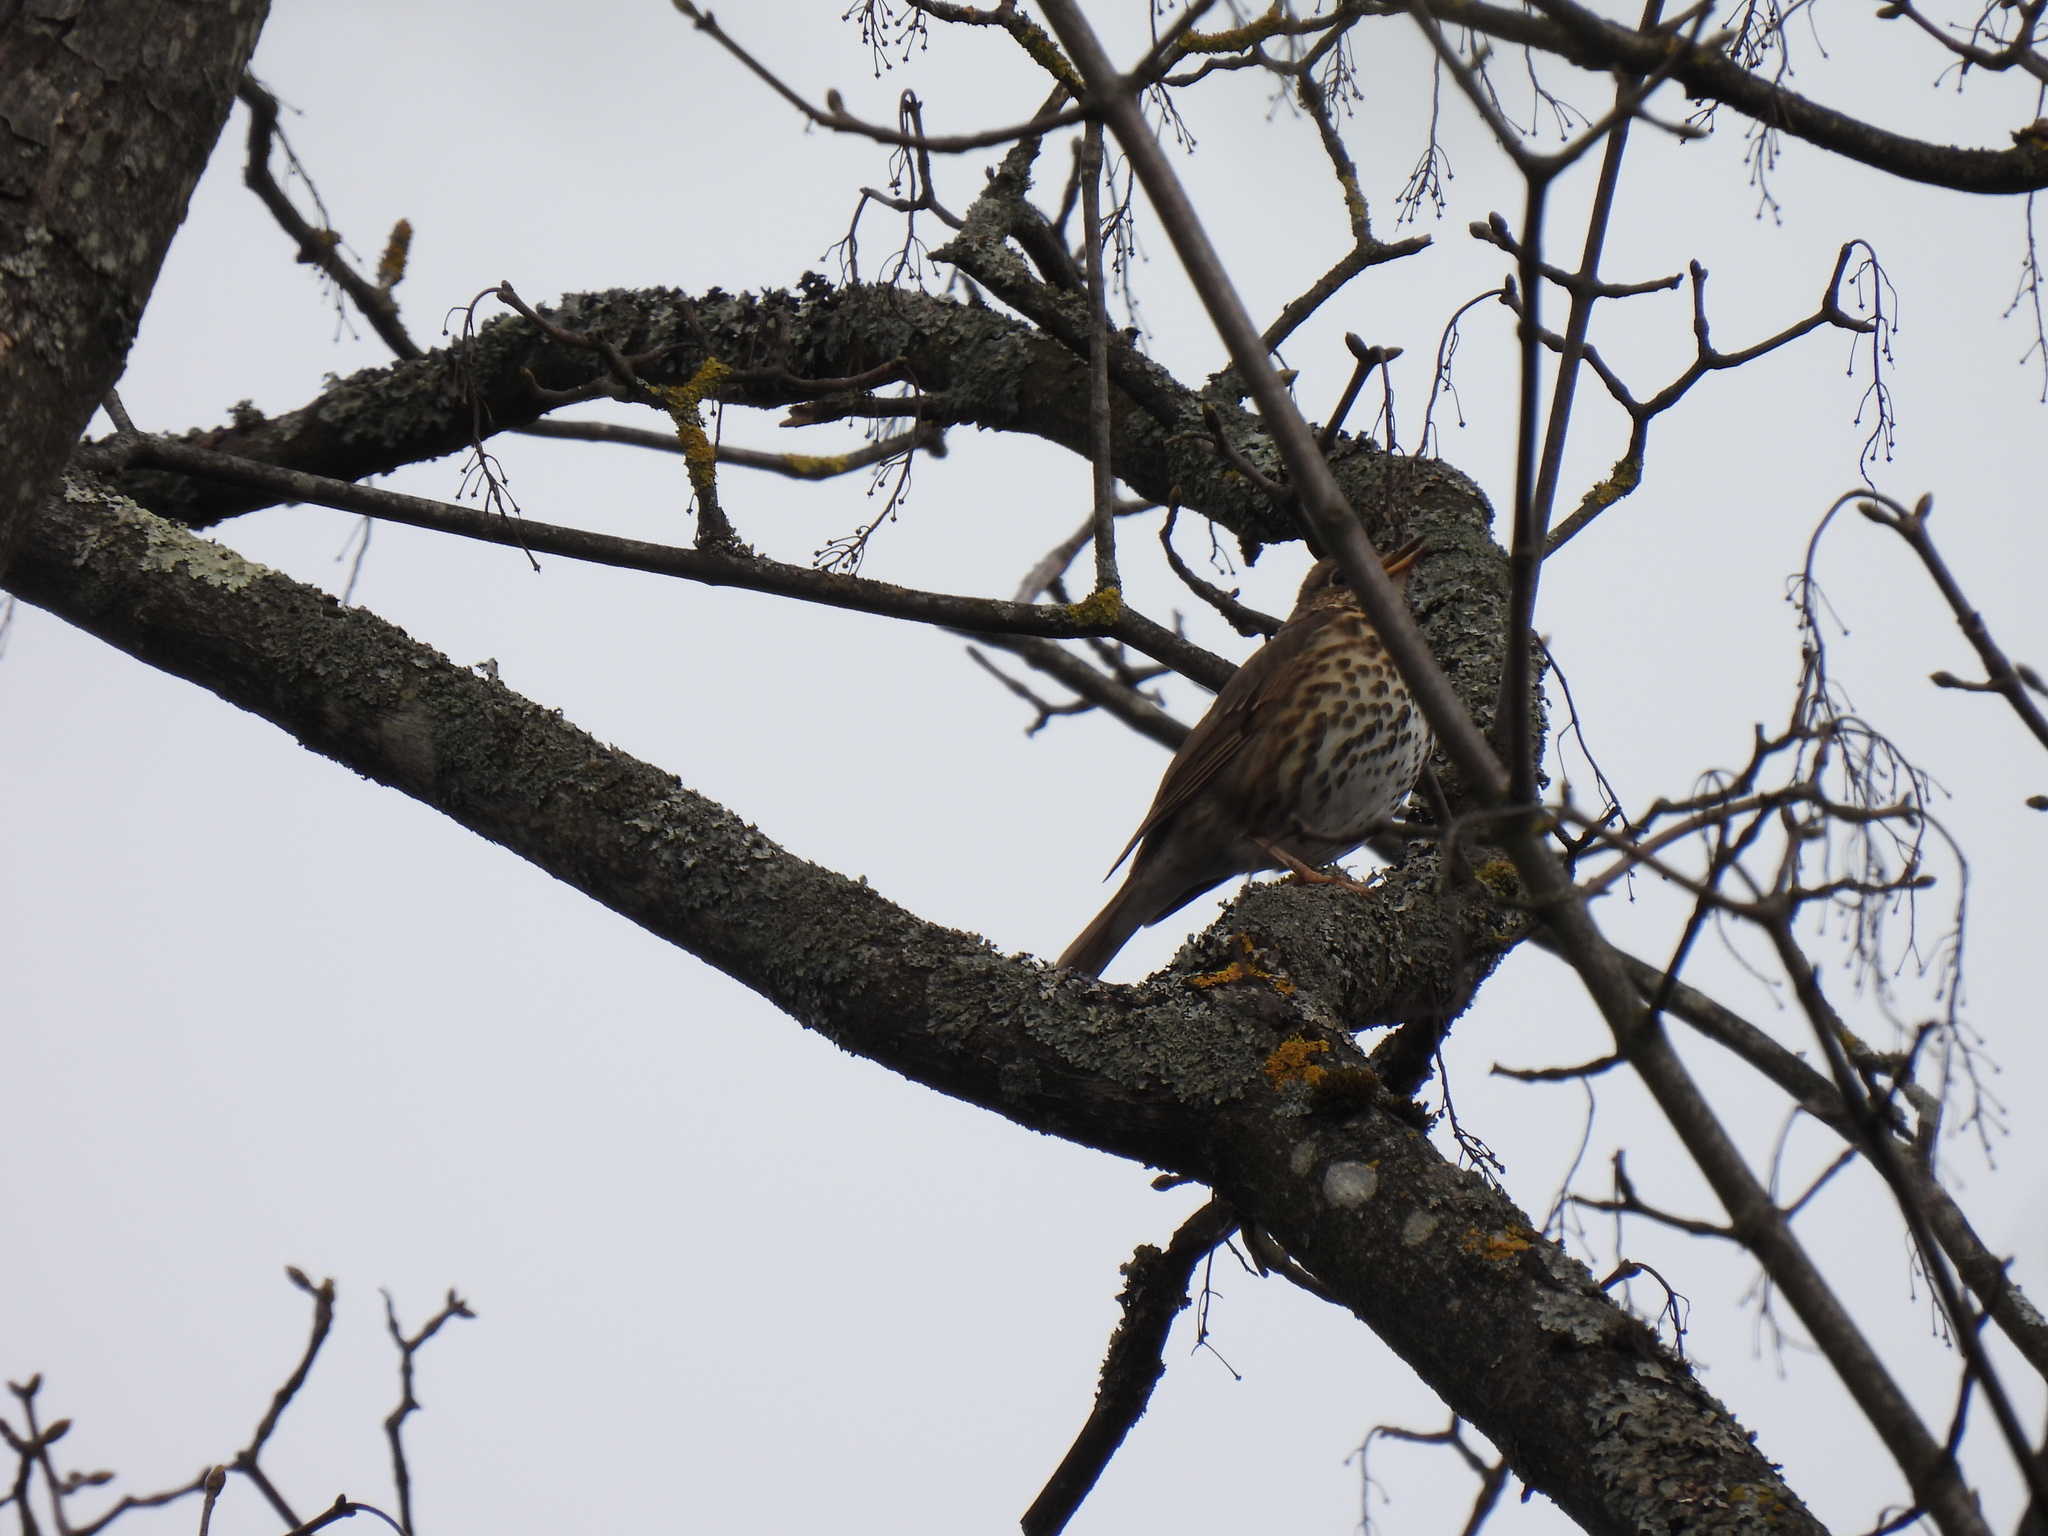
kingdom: Animalia
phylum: Chordata
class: Aves
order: Passeriformes
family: Turdidae
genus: Turdus
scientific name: Turdus philomelos
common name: Song thrush
